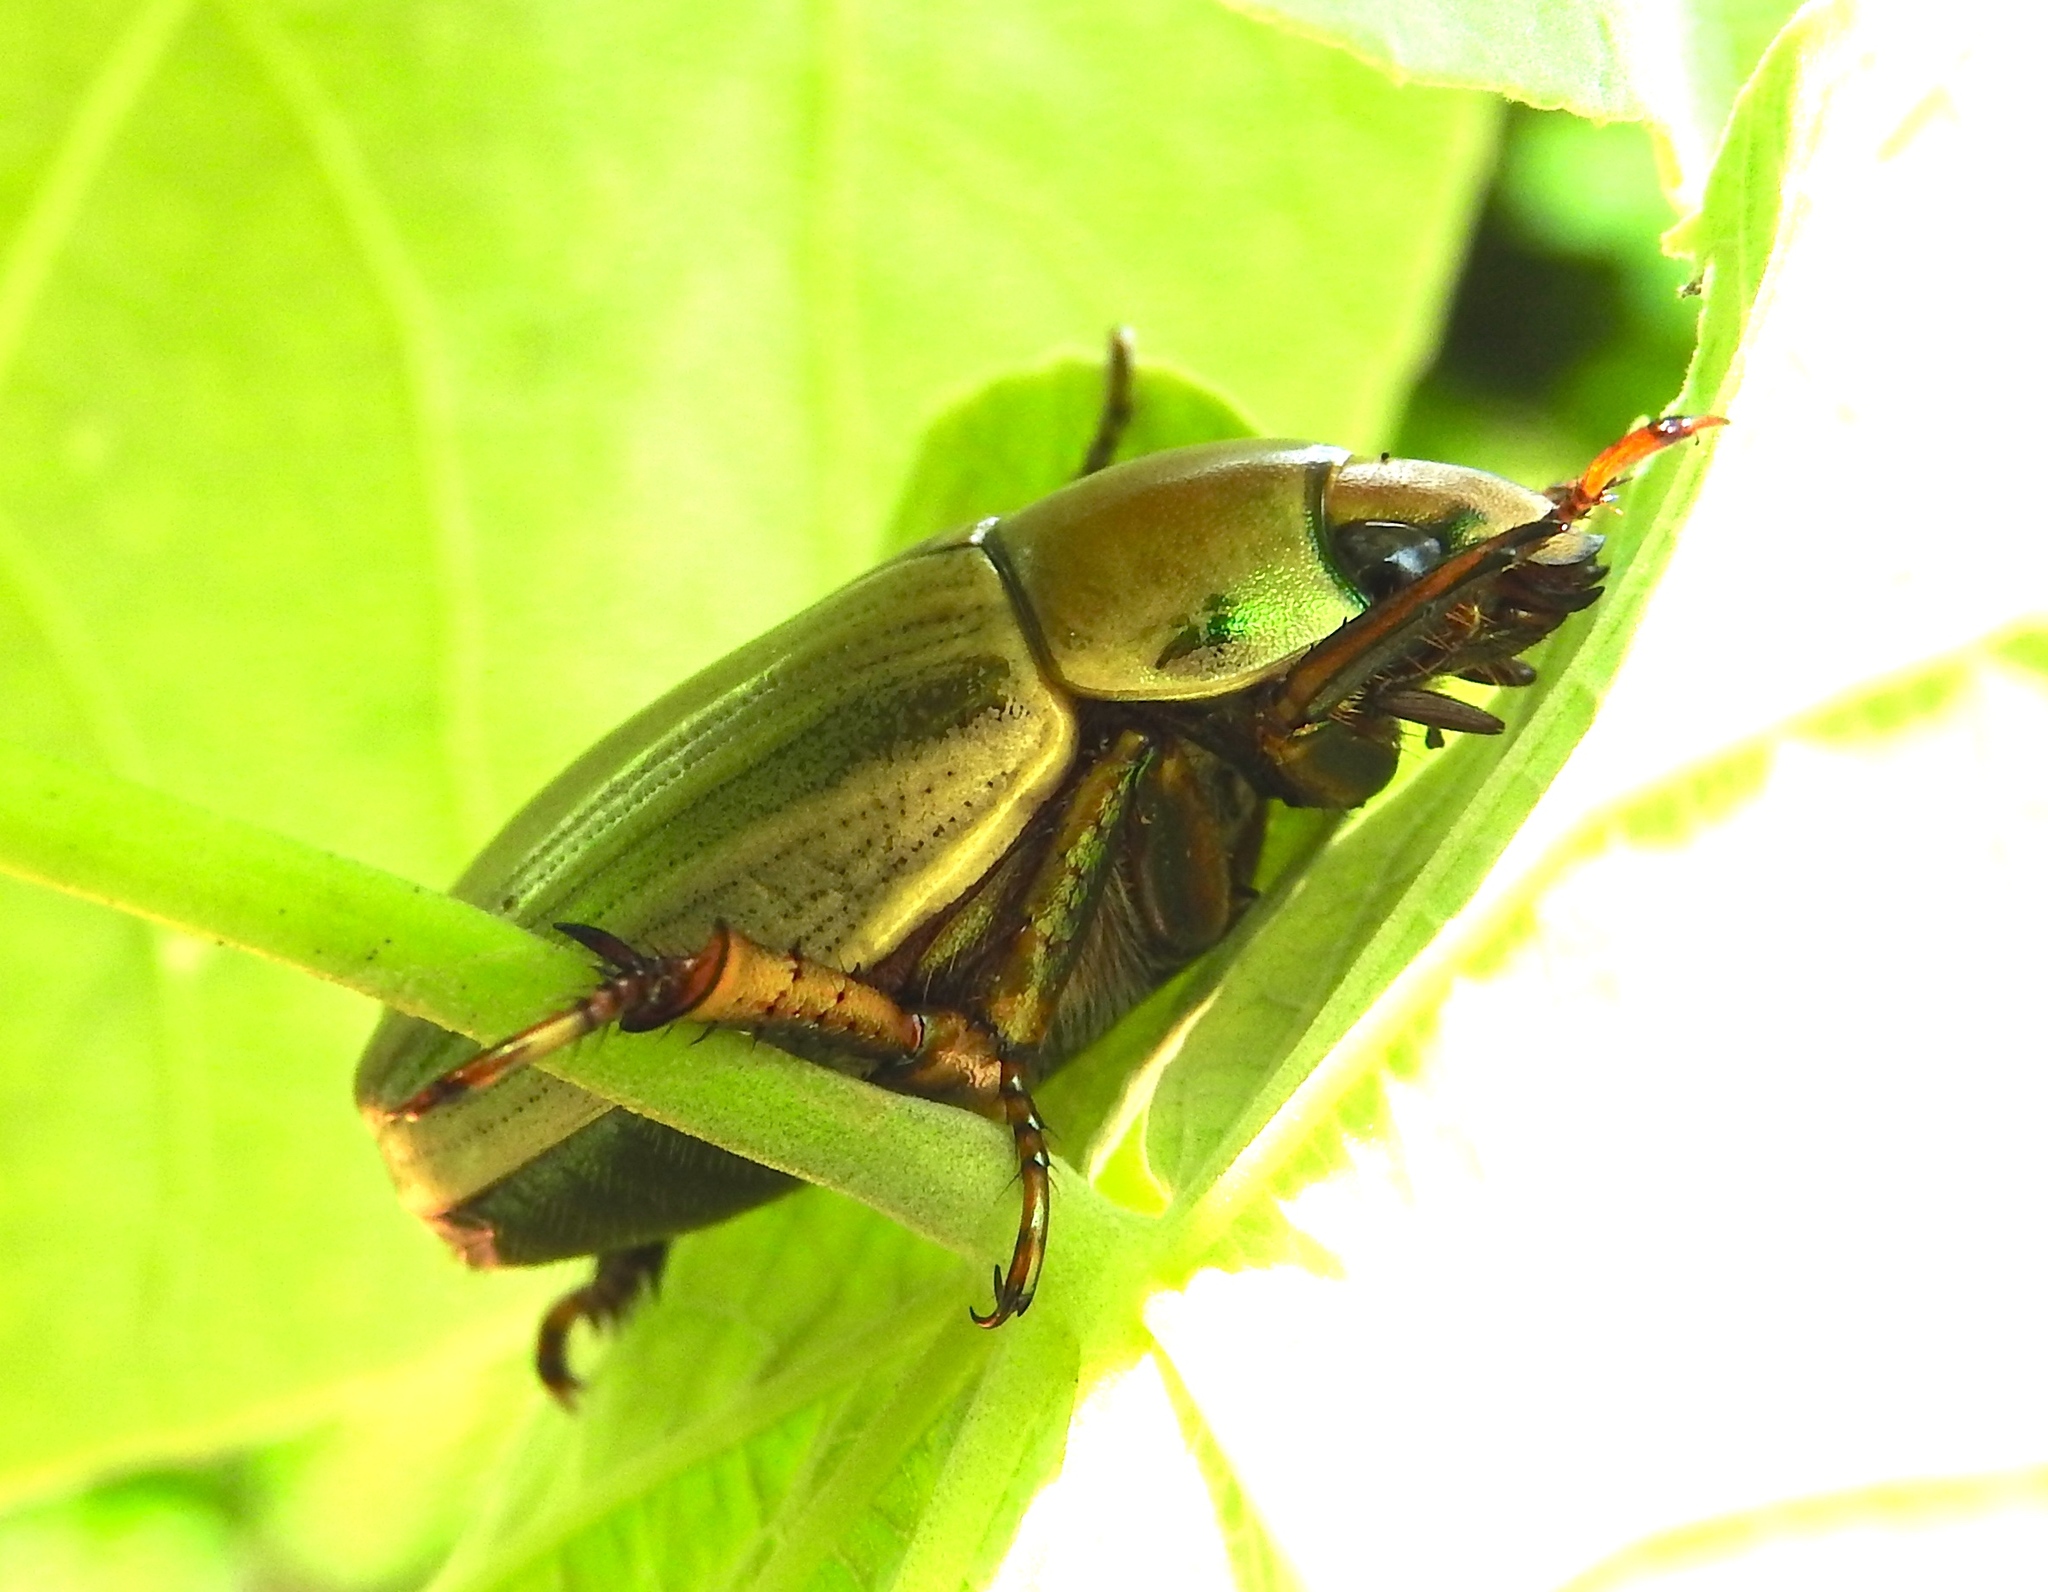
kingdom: Animalia
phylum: Arthropoda
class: Insecta
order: Coleoptera
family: Scarabaeidae
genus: Pelidnota
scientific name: Pelidnota
